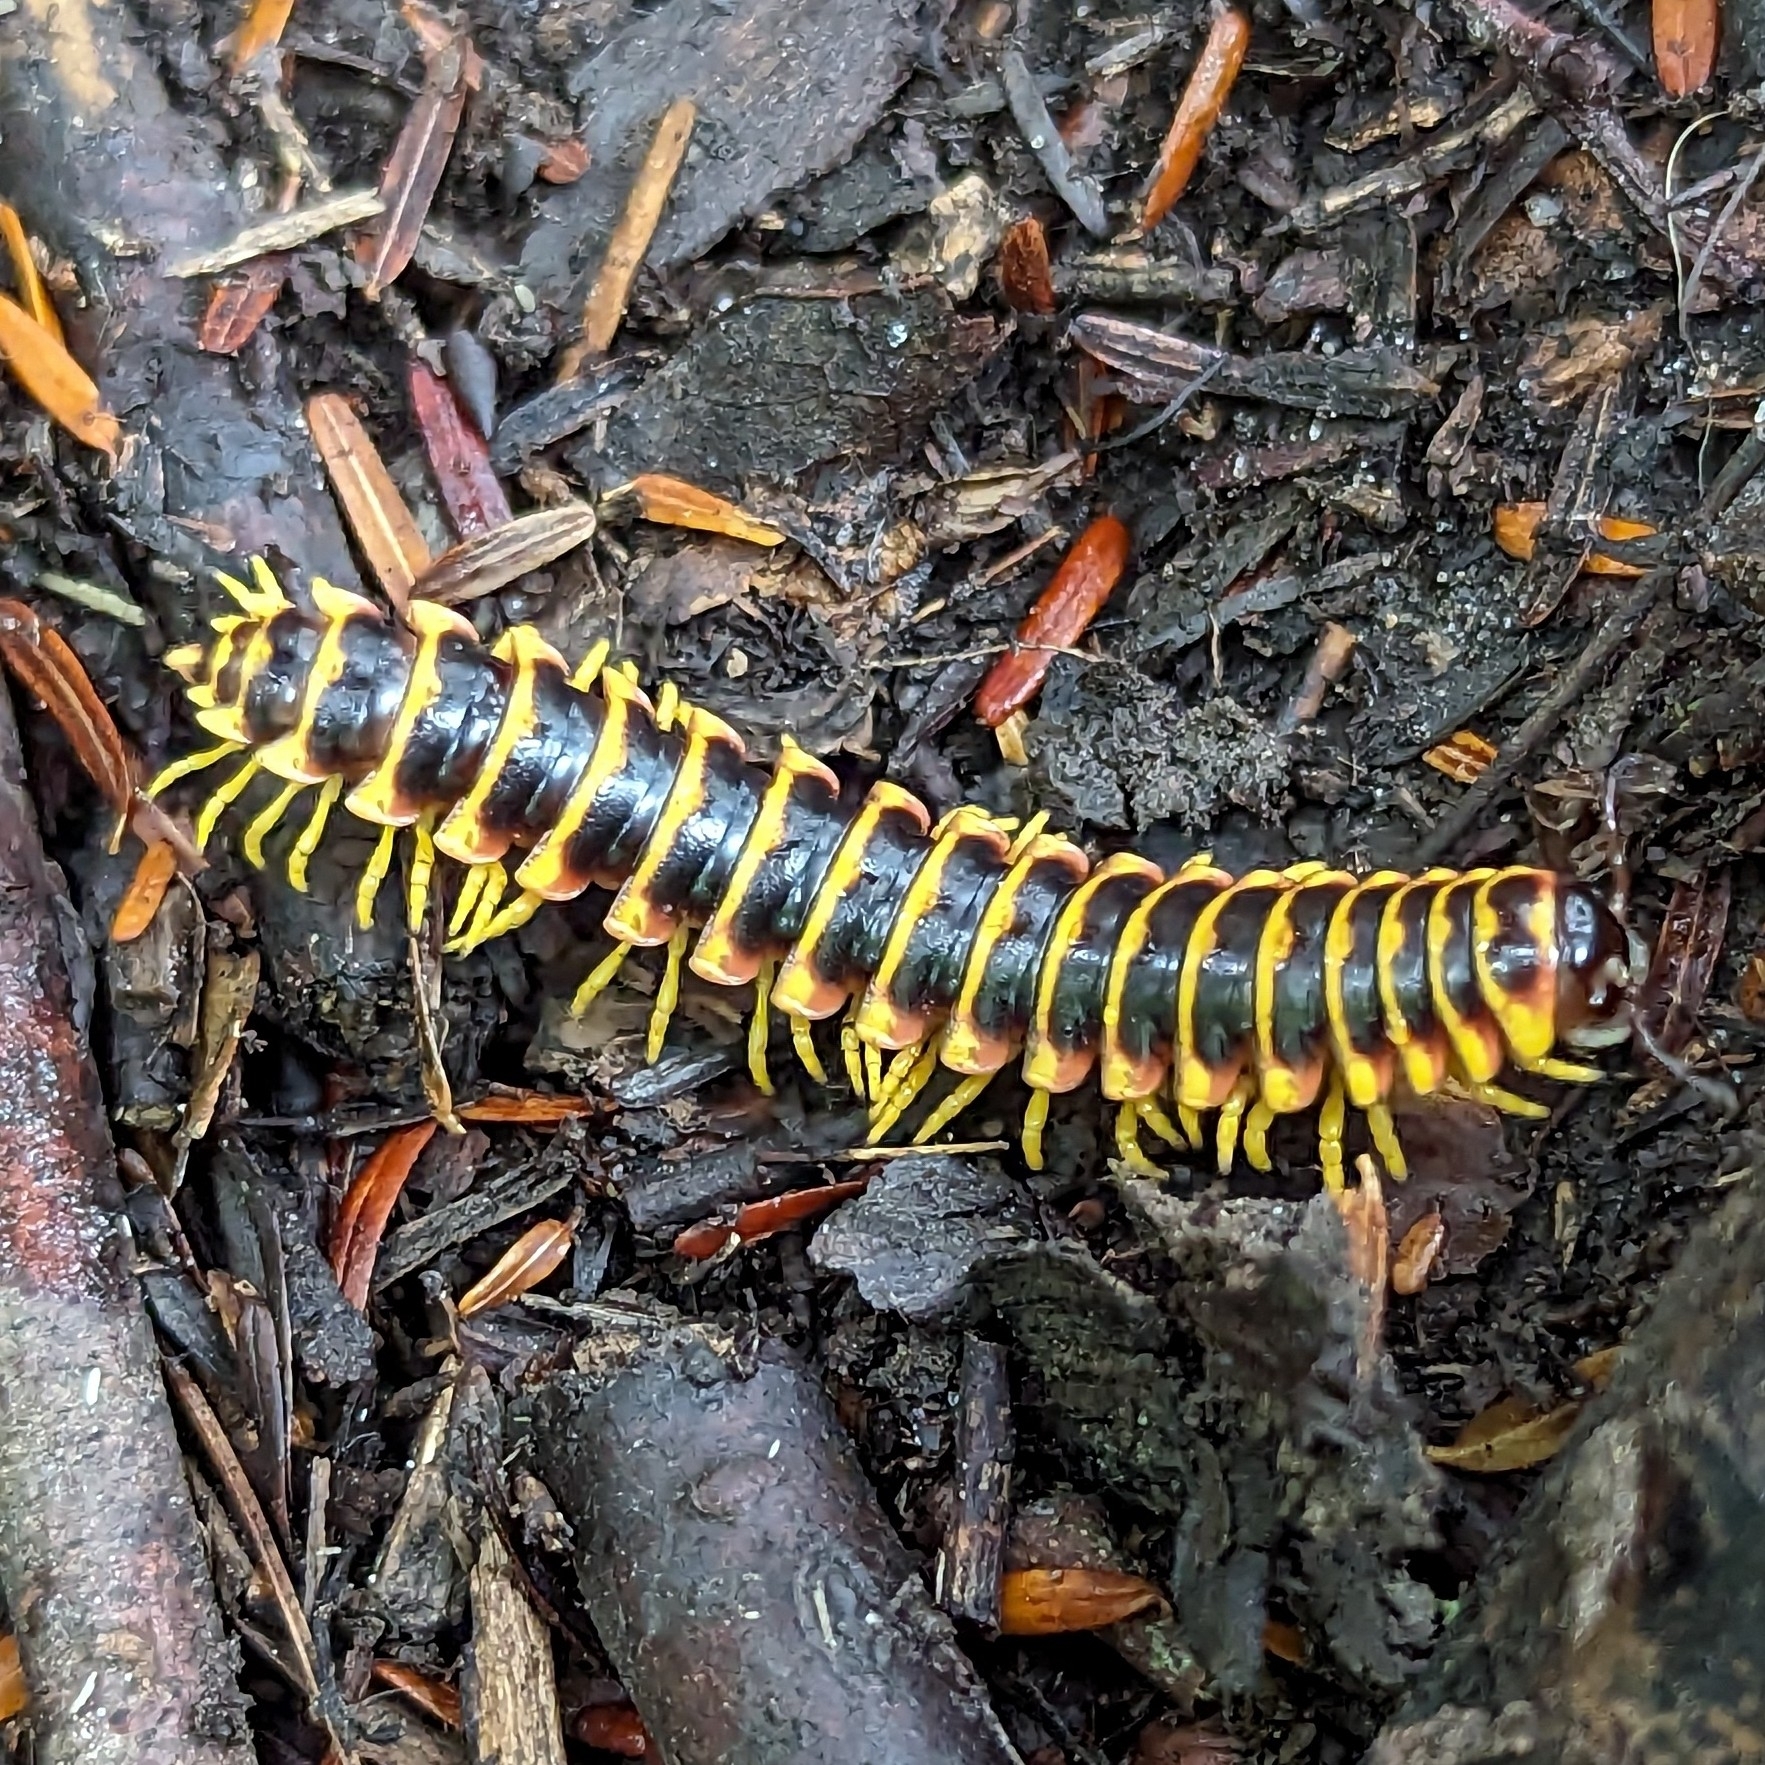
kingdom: Animalia
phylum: Arthropoda
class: Diplopoda
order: Polydesmida
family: Xystodesmidae
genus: Apheloria
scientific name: Apheloria virginiensis
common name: Black-and-gold flat millipede
